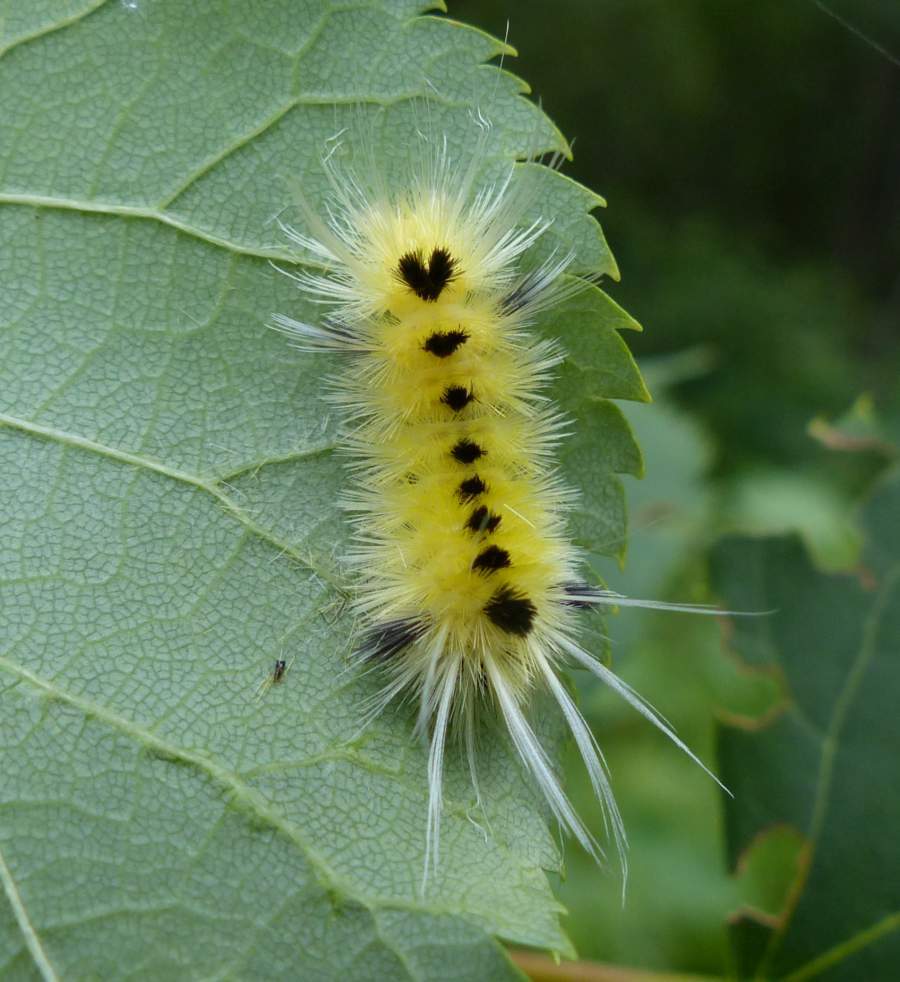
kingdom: Animalia
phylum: Arthropoda
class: Insecta
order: Lepidoptera
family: Erebidae
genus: Lophocampa
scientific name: Lophocampa maculata
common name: Spotted tussock moth
